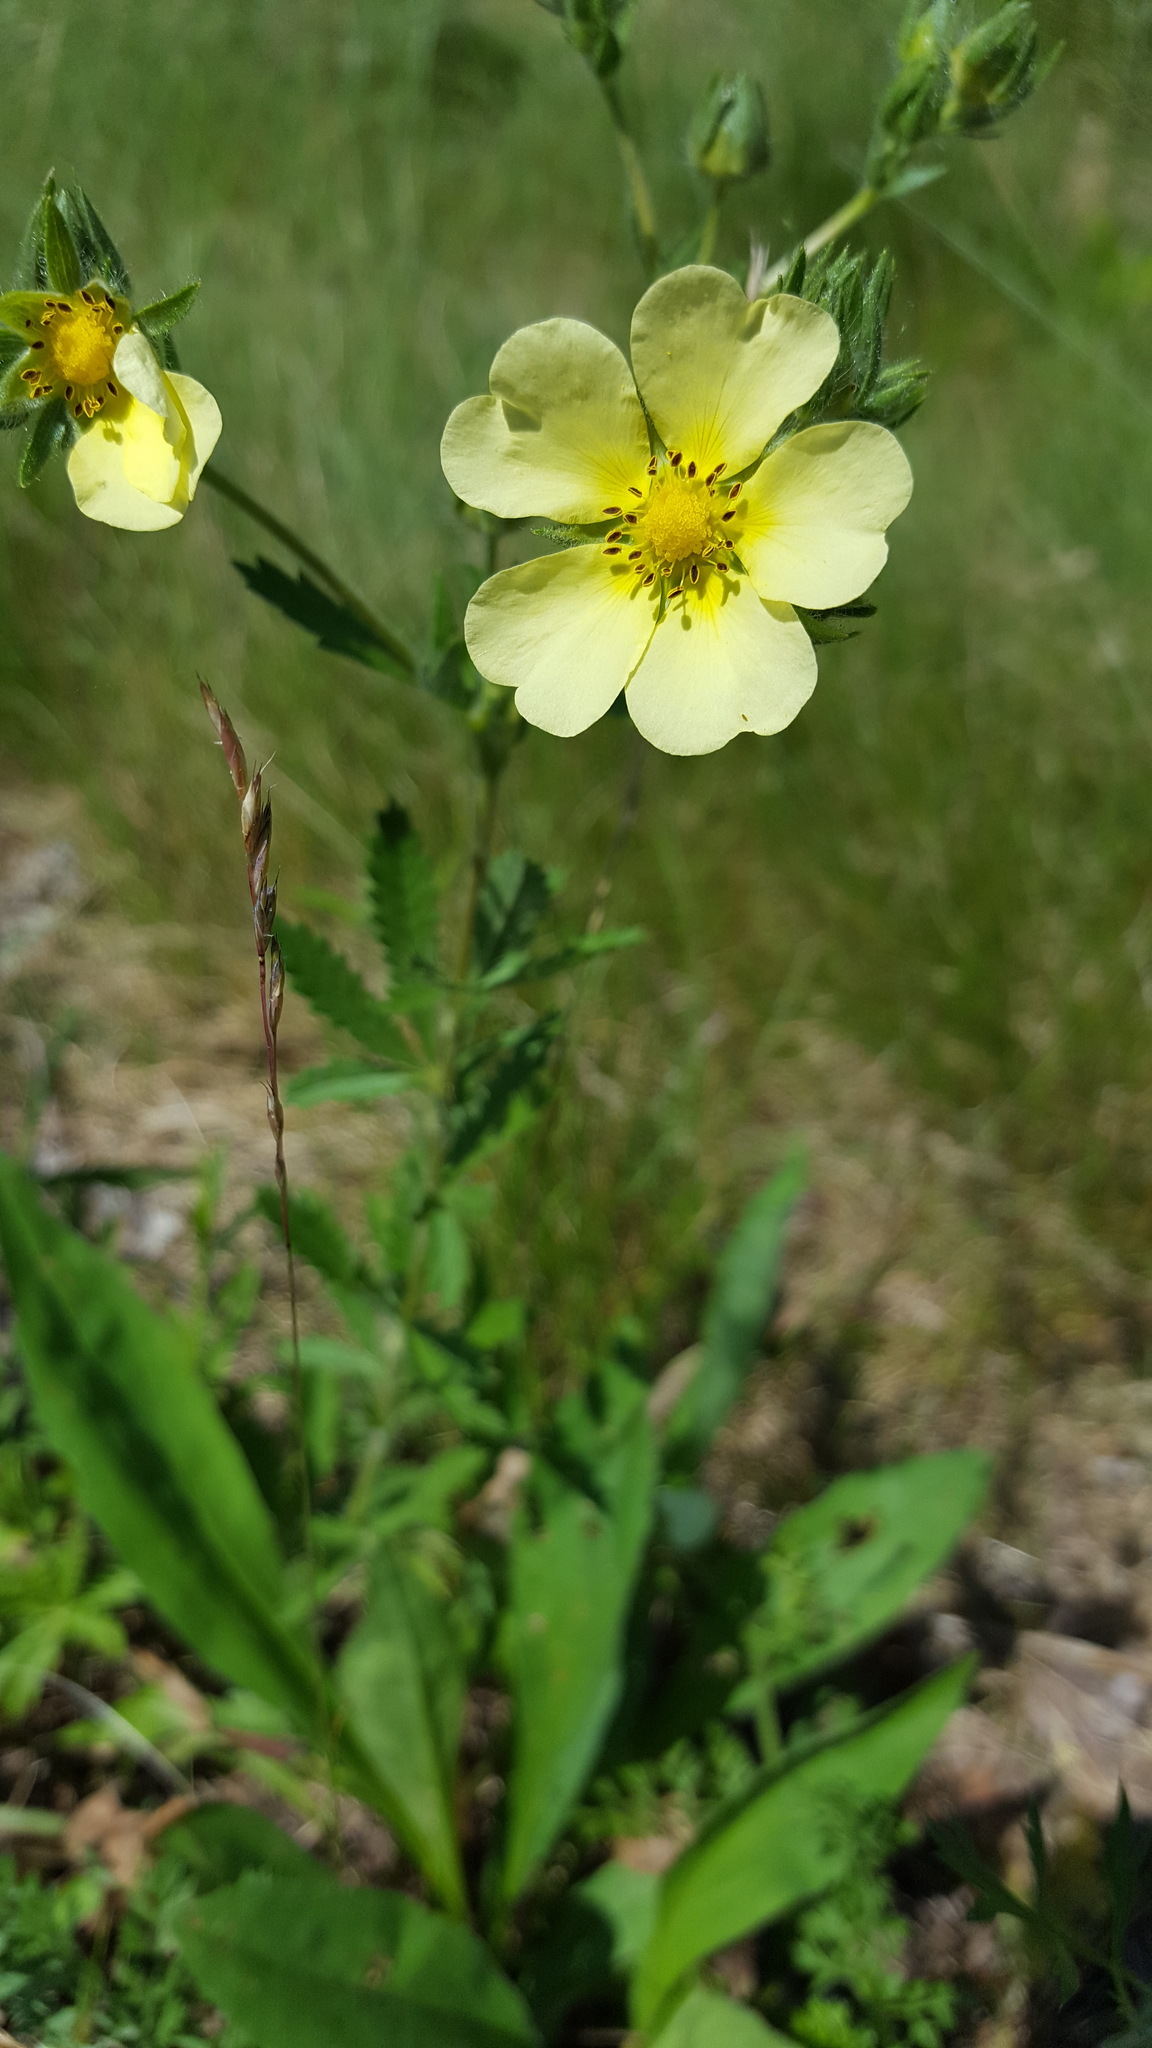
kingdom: Plantae
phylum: Tracheophyta
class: Magnoliopsida
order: Rosales
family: Rosaceae
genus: Potentilla
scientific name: Potentilla recta
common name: Sulphur cinquefoil
